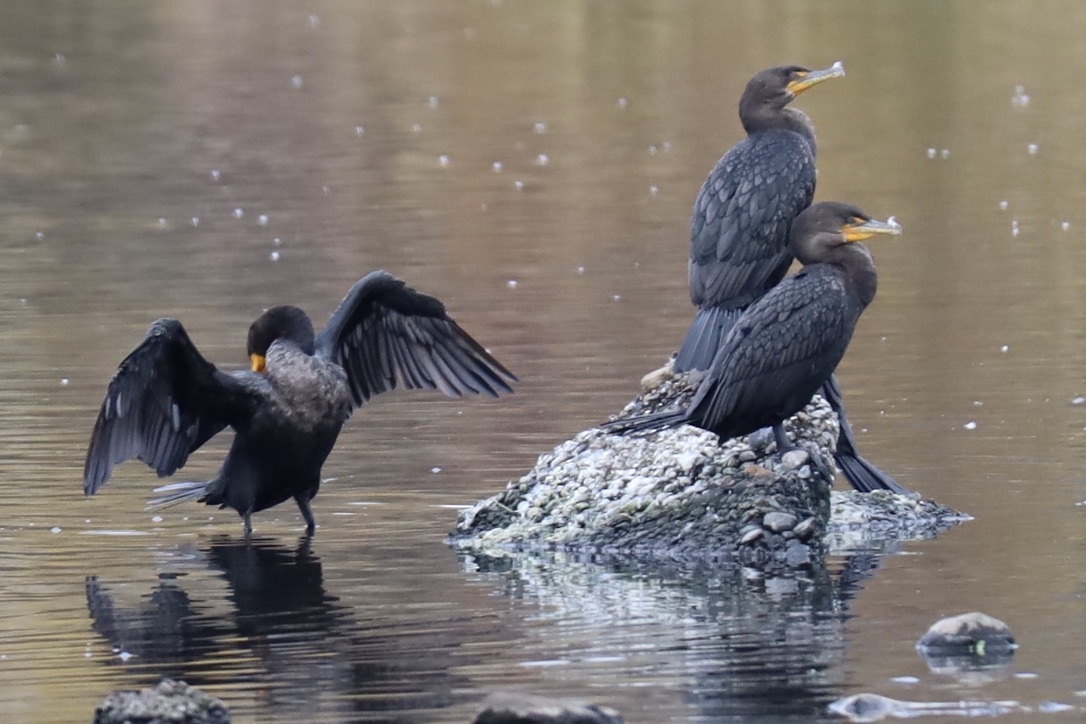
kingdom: Animalia
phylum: Chordata
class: Aves
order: Suliformes
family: Phalacrocoracidae
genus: Phalacrocorax
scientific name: Phalacrocorax auritus
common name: Double-crested cormorant
